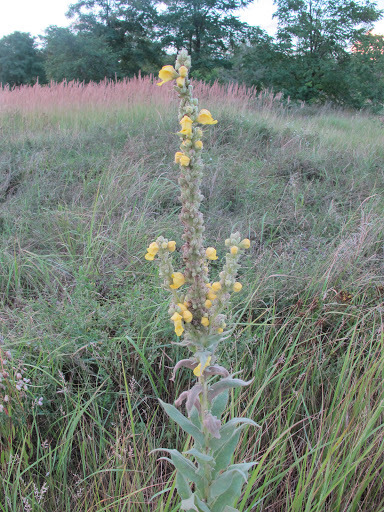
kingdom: Plantae
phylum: Tracheophyta
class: Magnoliopsida
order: Lamiales
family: Scrophulariaceae
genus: Verbascum
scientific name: Verbascum thapsus
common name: Common mullein
